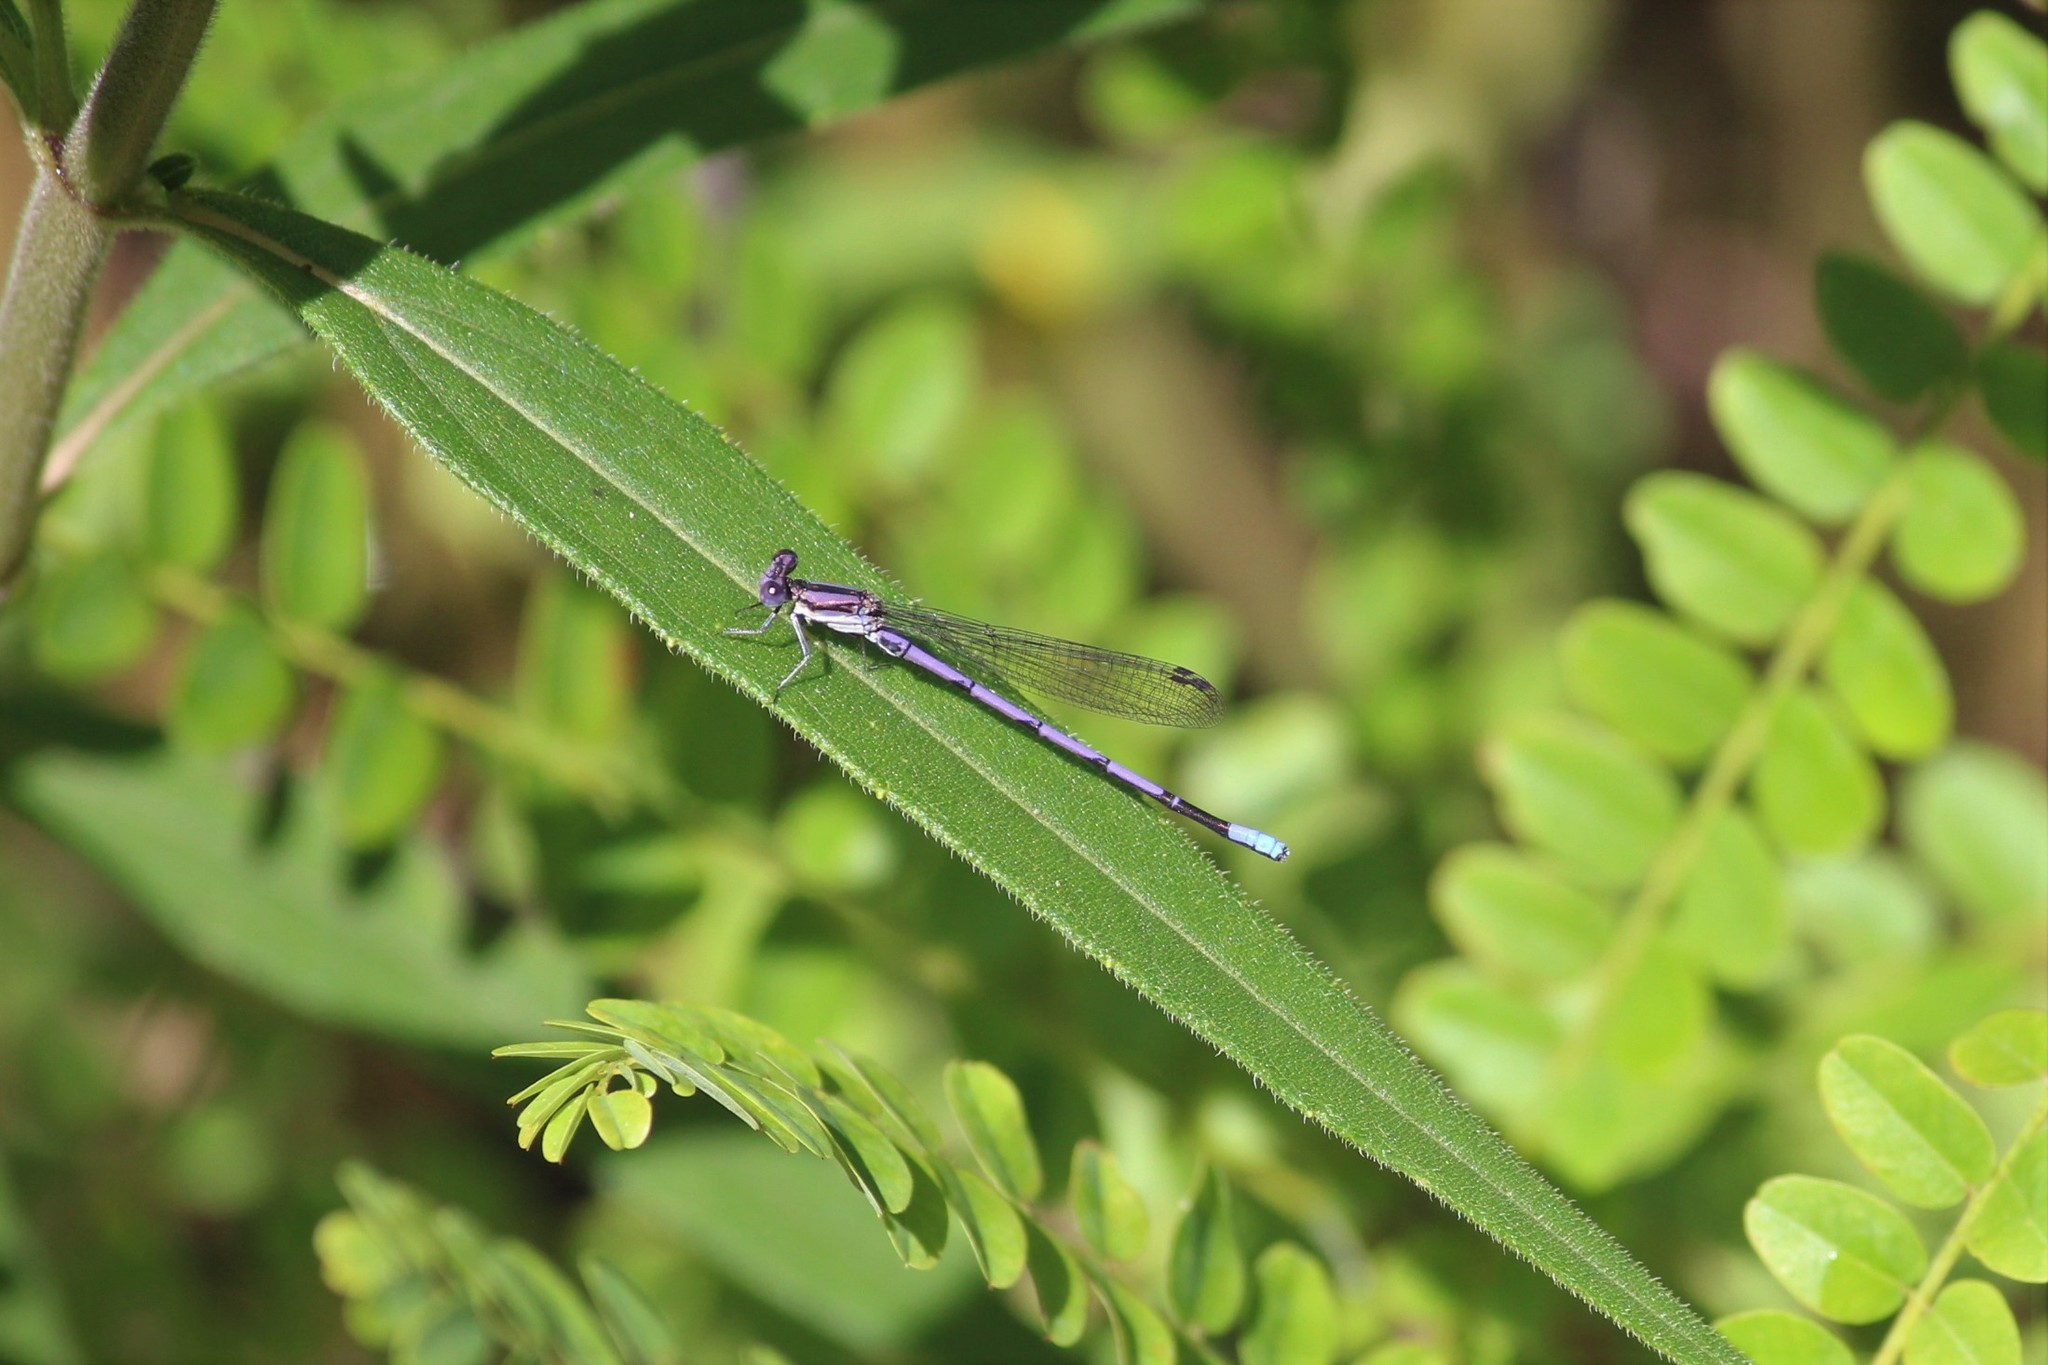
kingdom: Animalia
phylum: Arthropoda
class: Insecta
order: Odonata
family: Coenagrionidae
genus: Argia
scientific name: Argia fumipennis
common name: Variable dancer
